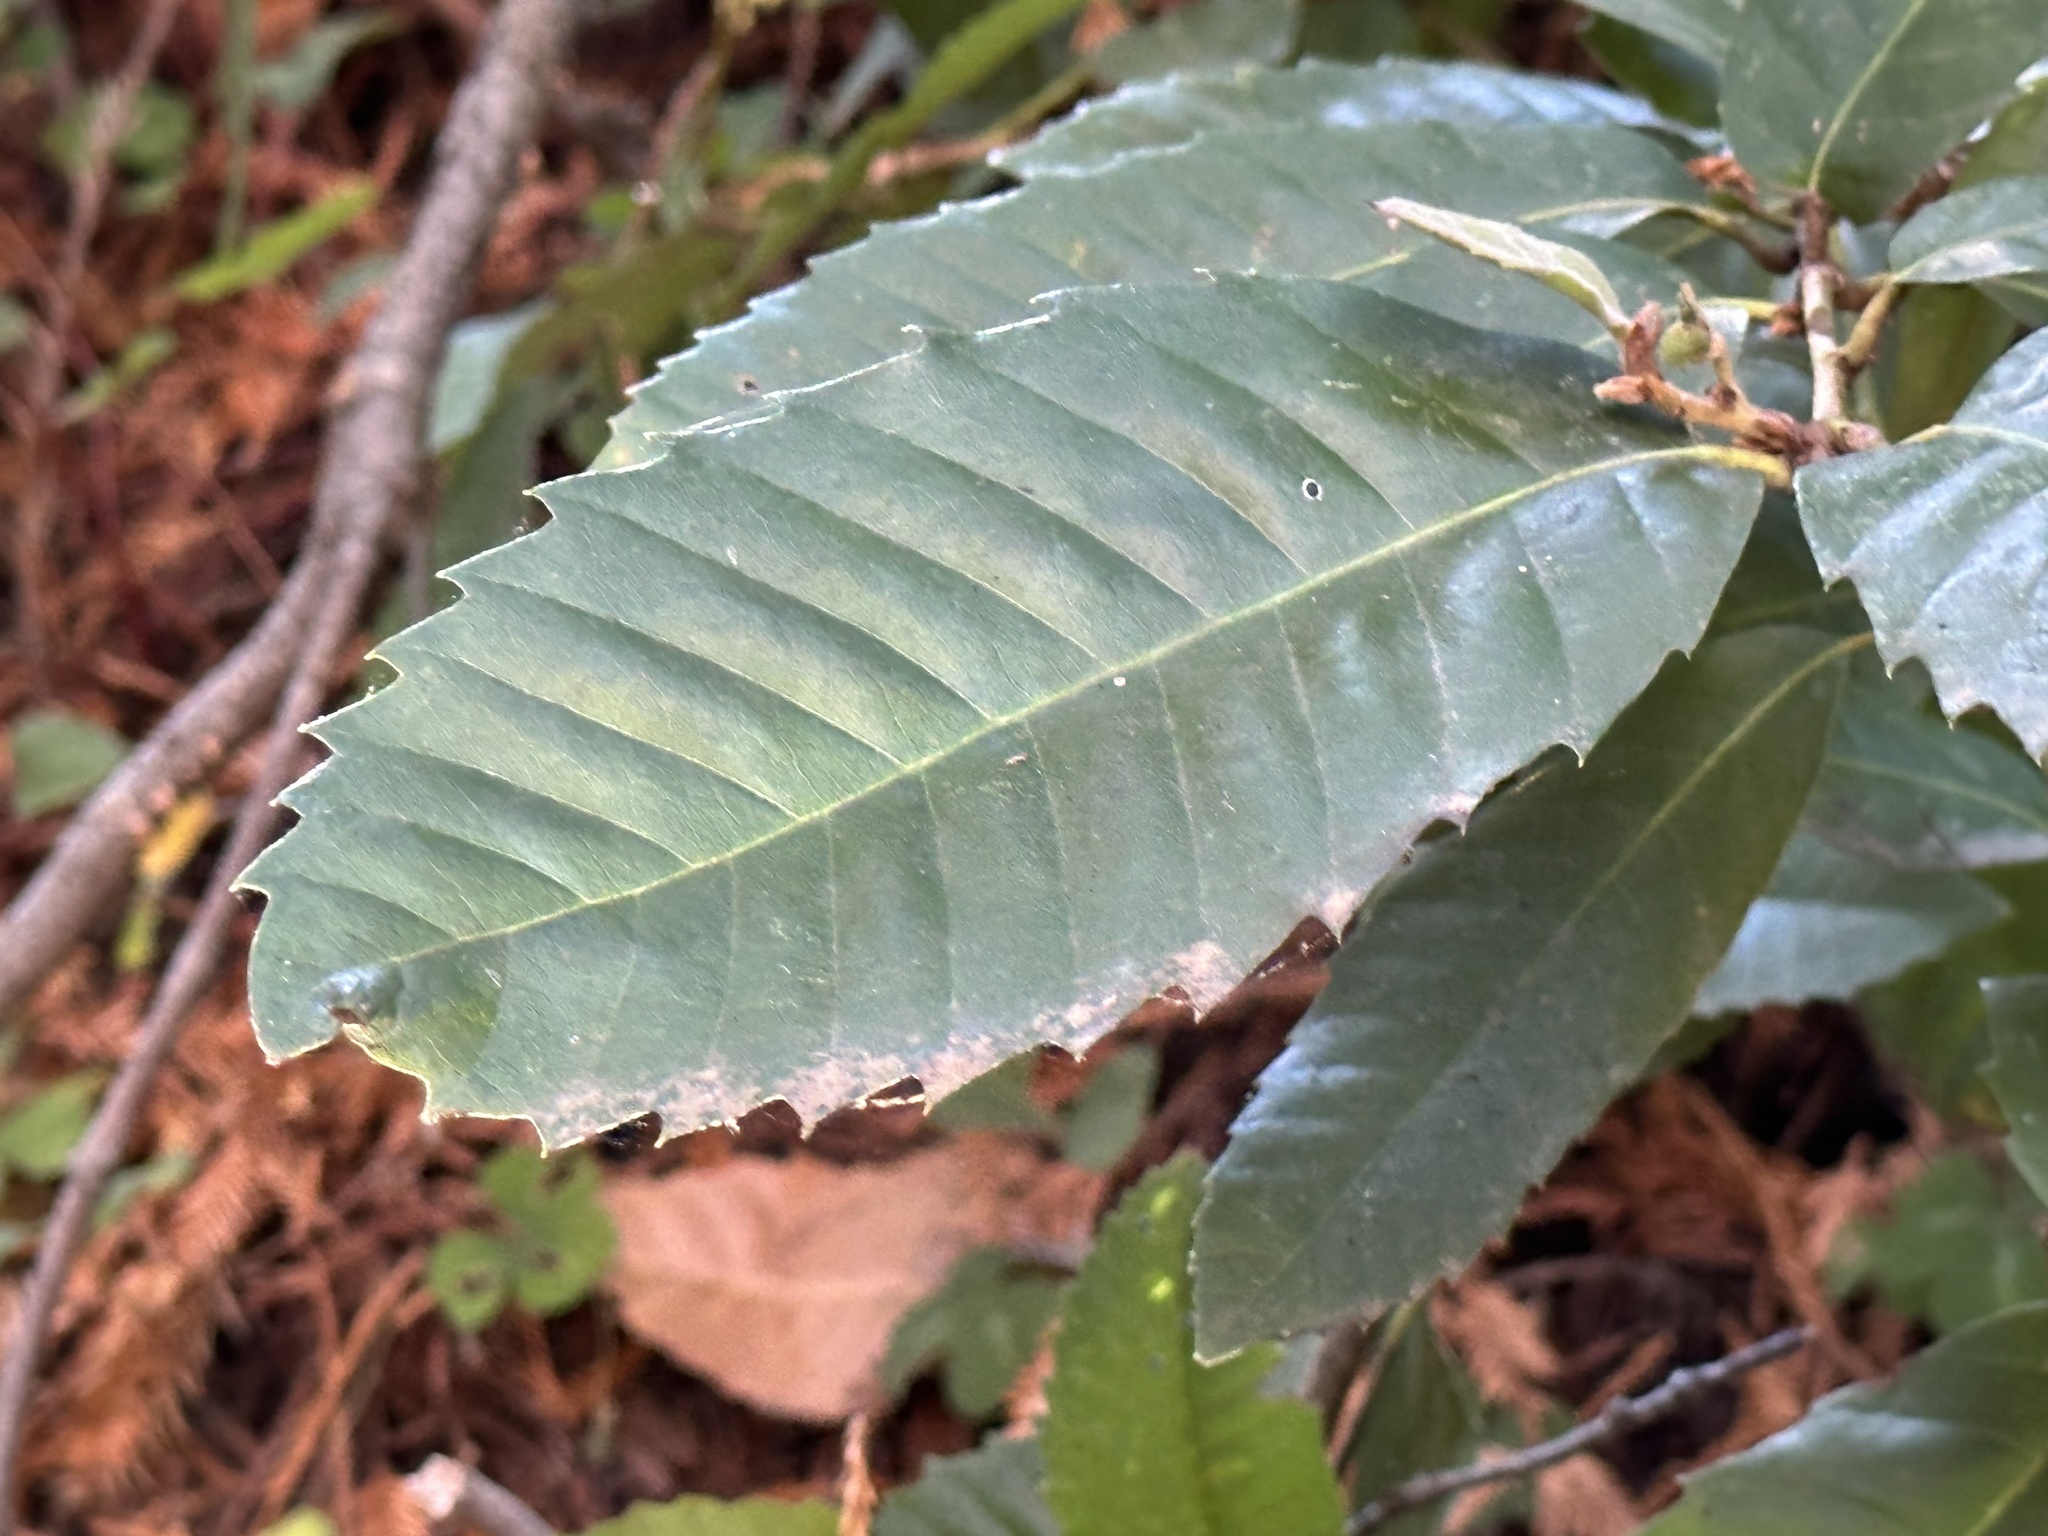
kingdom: Plantae
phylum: Tracheophyta
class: Magnoliopsida
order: Fagales
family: Fagaceae
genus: Notholithocarpus
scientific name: Notholithocarpus densiflorus
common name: Tan bark oak
